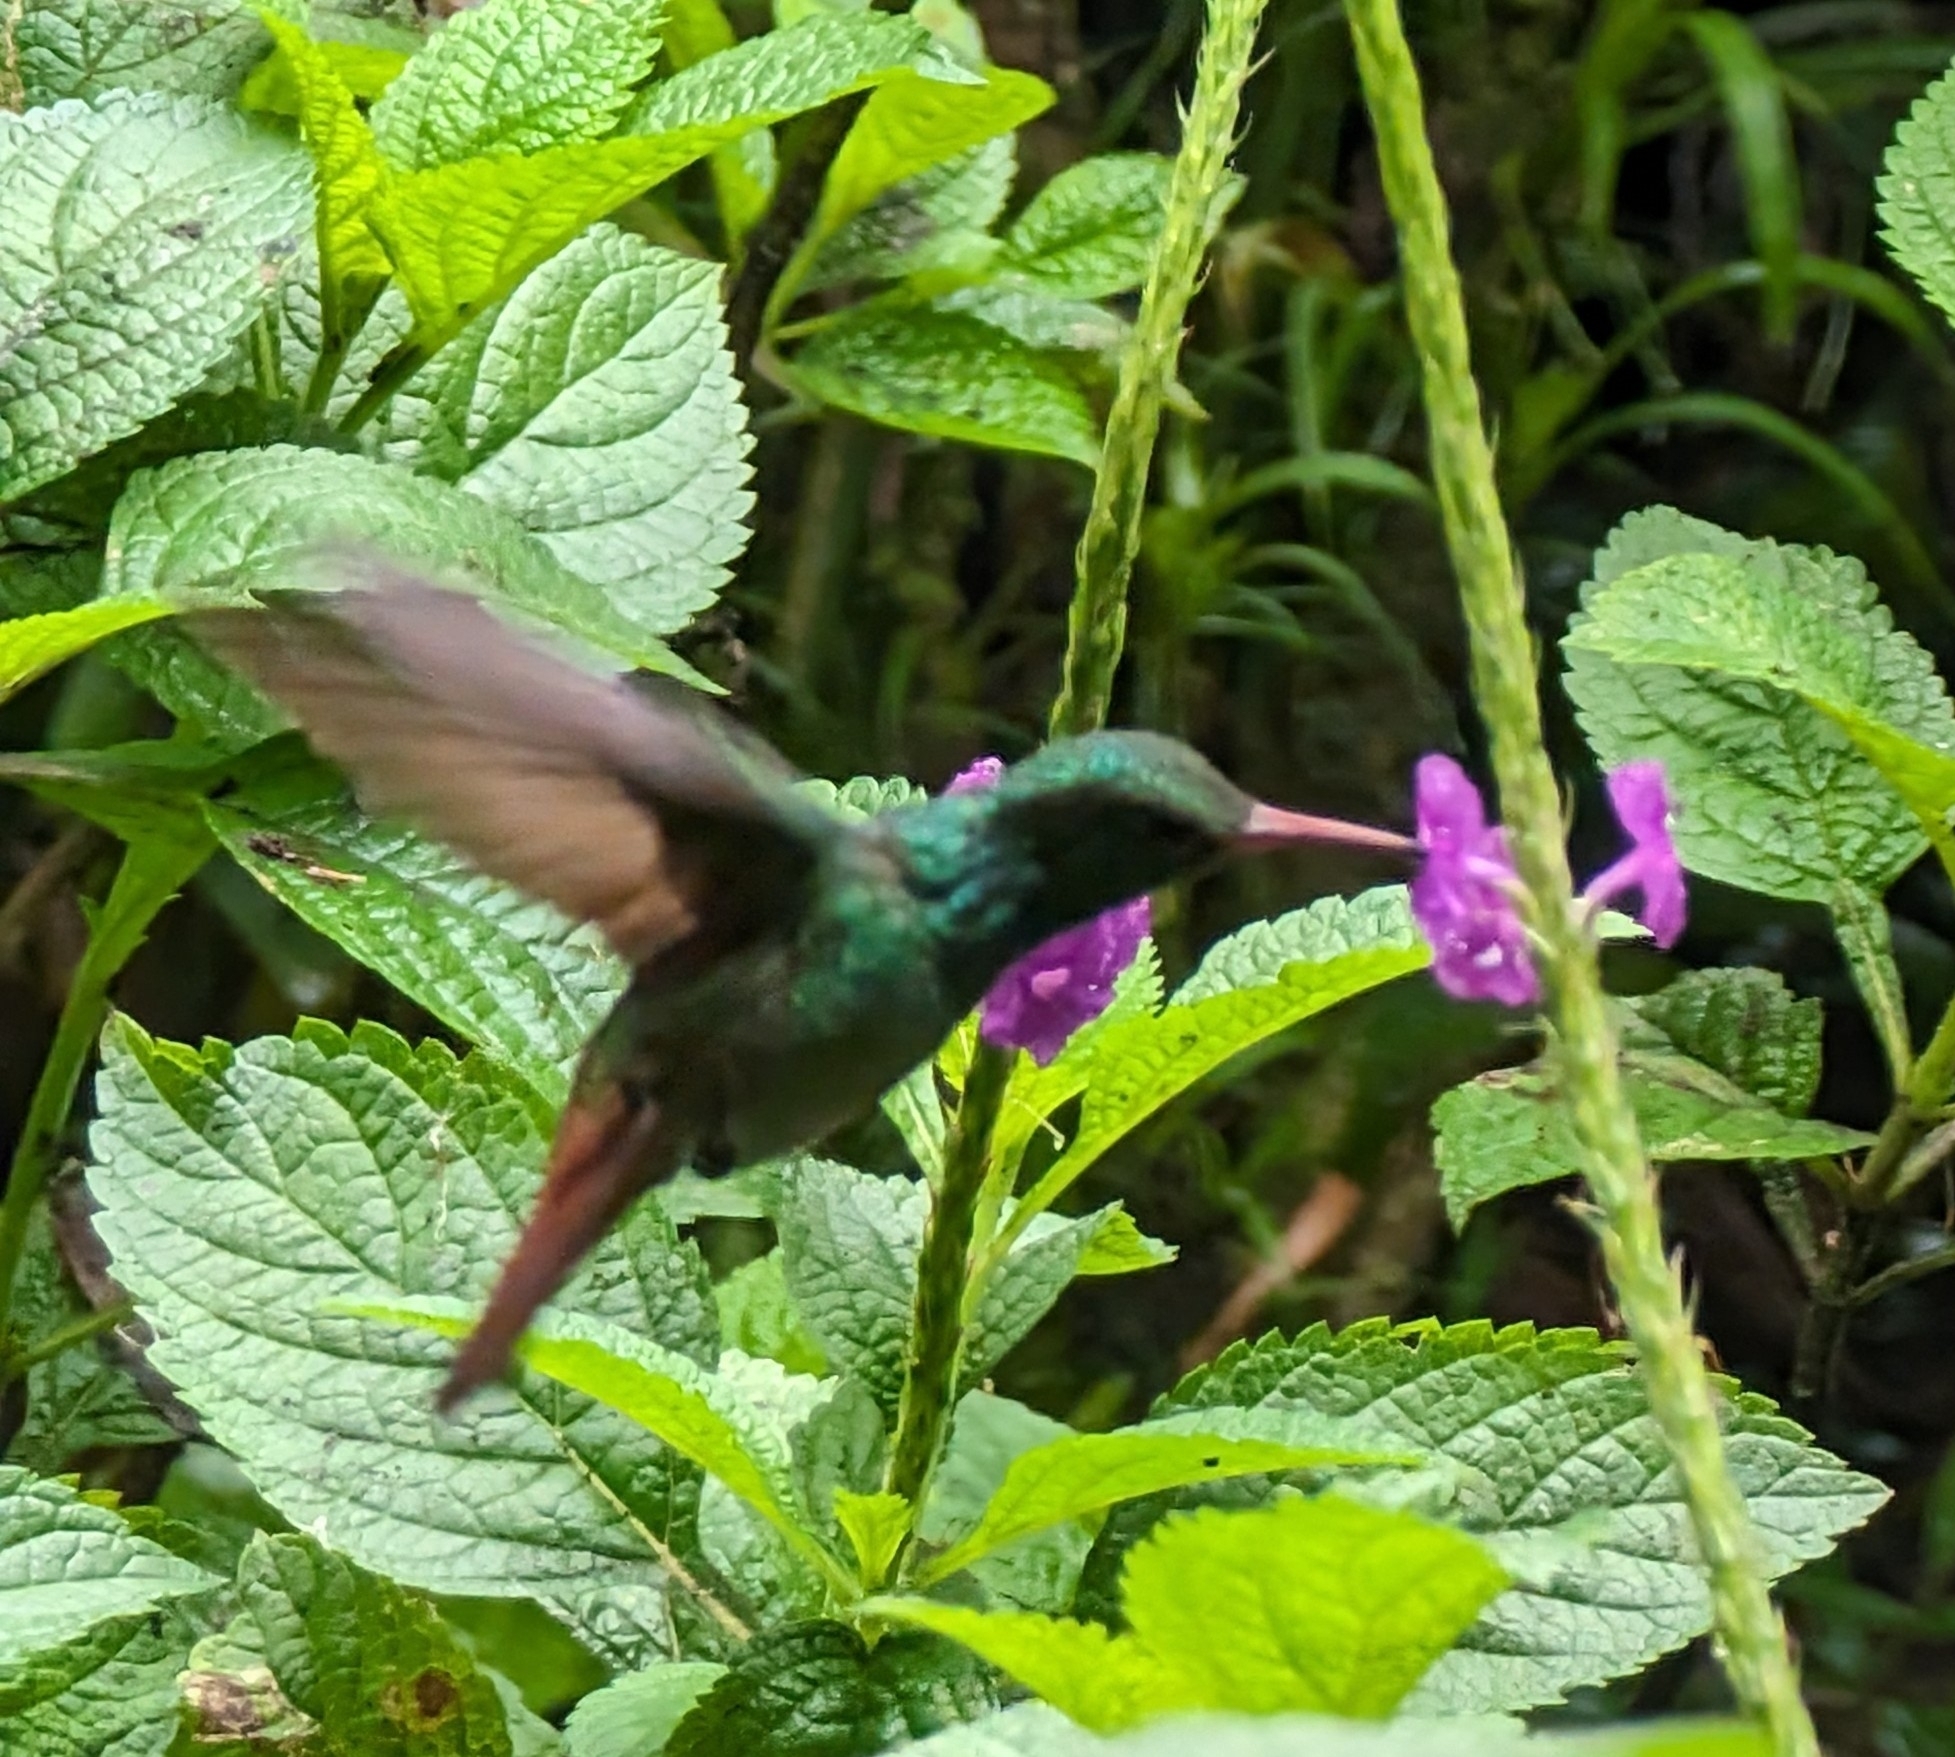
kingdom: Animalia
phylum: Chordata
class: Aves
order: Apodiformes
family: Trochilidae
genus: Amazilia
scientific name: Amazilia tzacatl
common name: Rufous-tailed hummingbird
